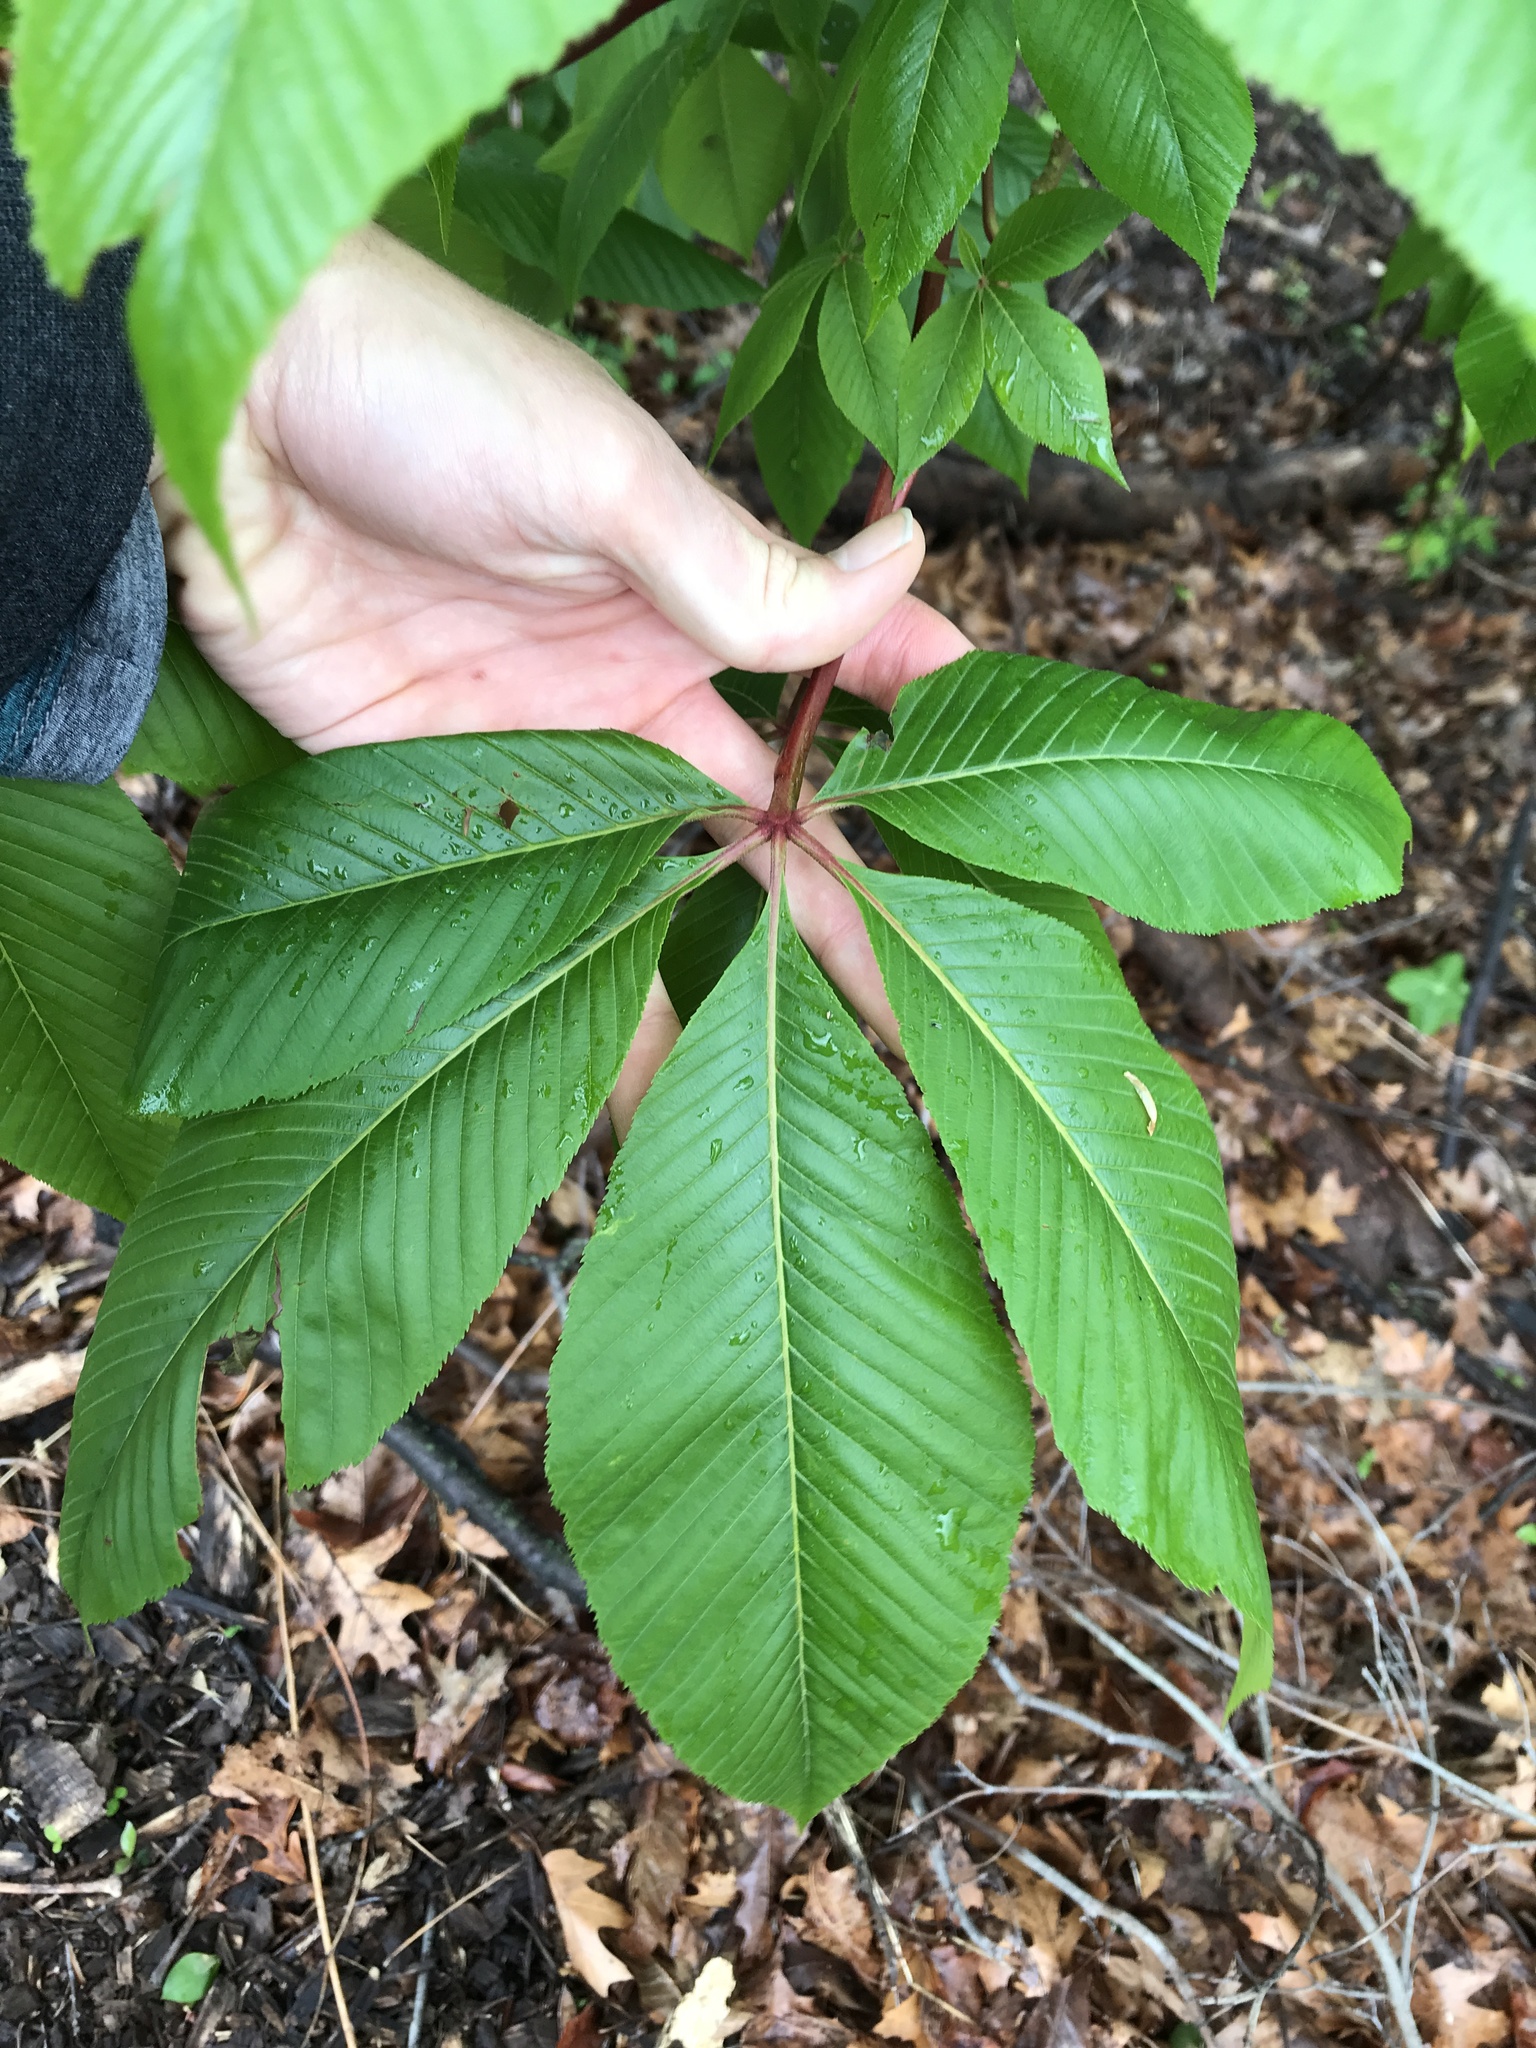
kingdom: Plantae
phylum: Tracheophyta
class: Magnoliopsida
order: Sapindales
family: Sapindaceae
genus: Aesculus
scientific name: Aesculus flava
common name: Yellow buckeye
